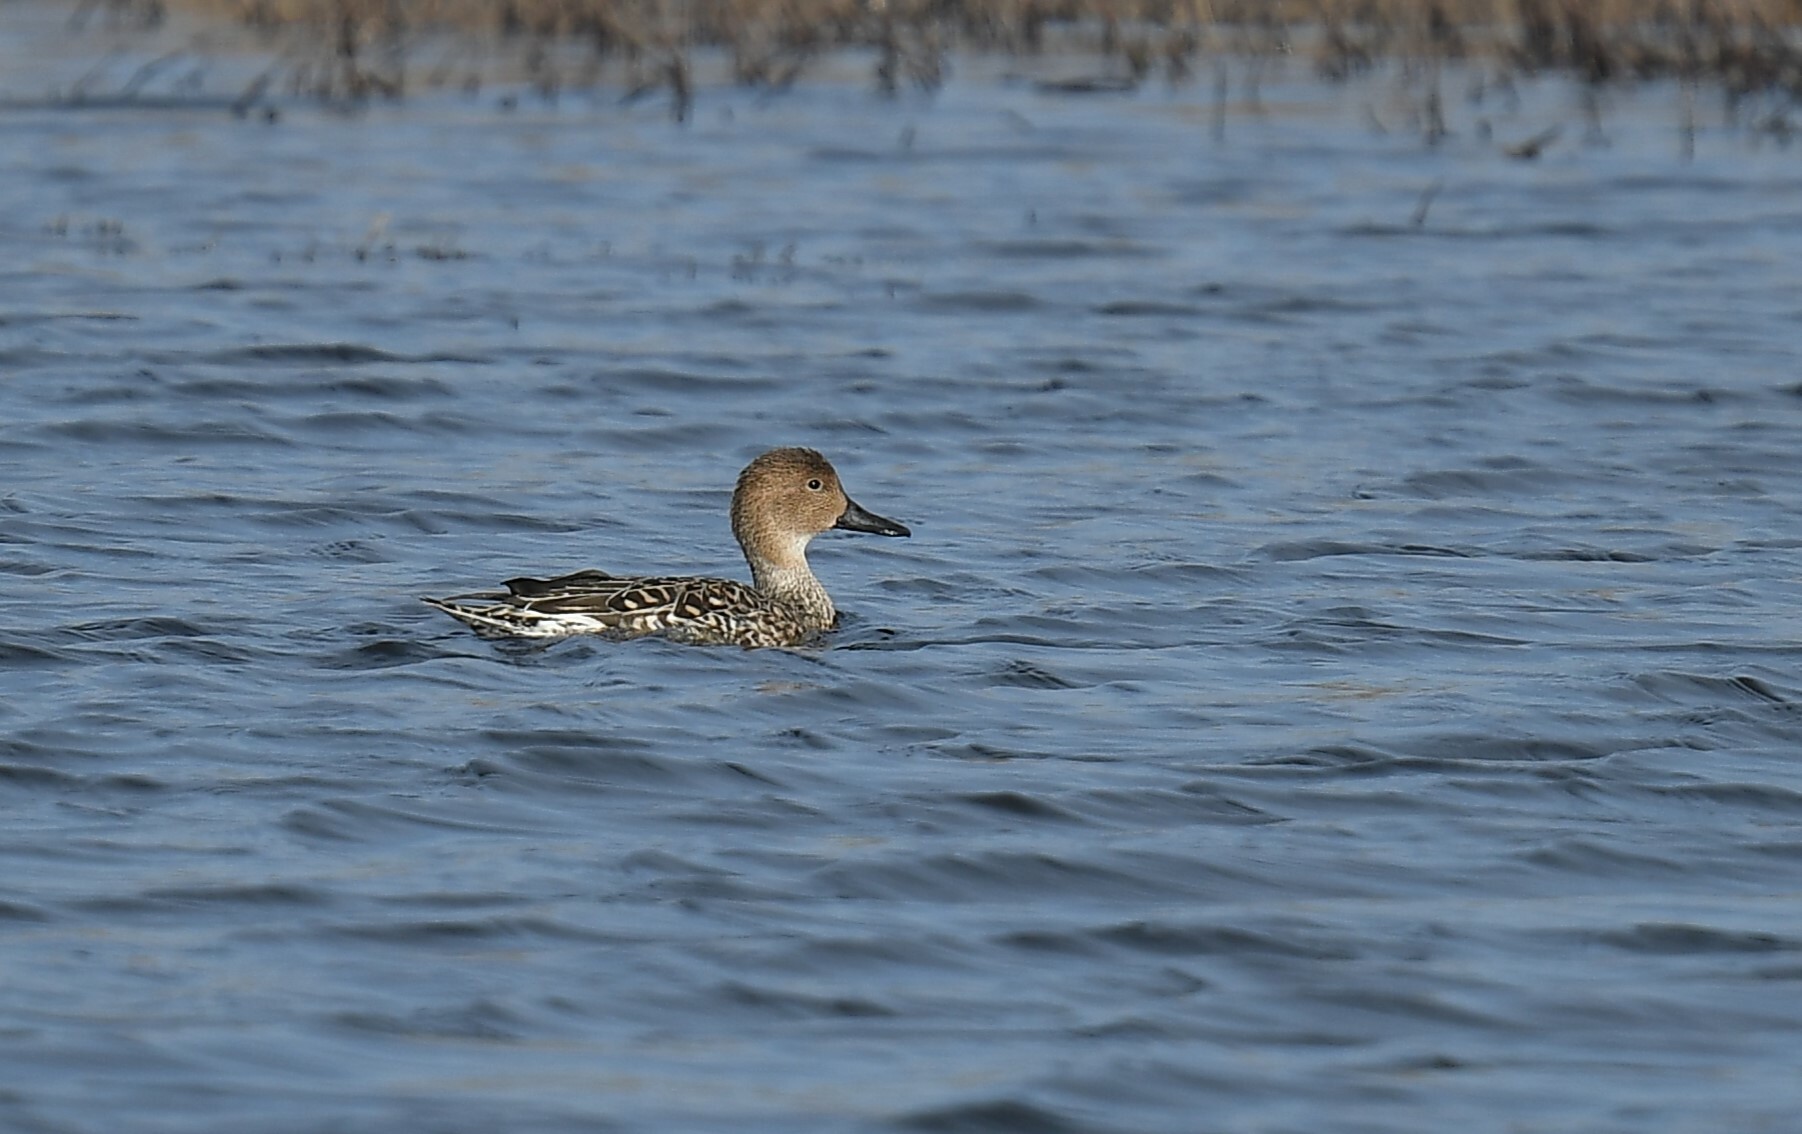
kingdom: Animalia
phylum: Chordata
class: Aves
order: Anseriformes
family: Anatidae
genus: Anas
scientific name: Anas acuta
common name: Northern pintail
